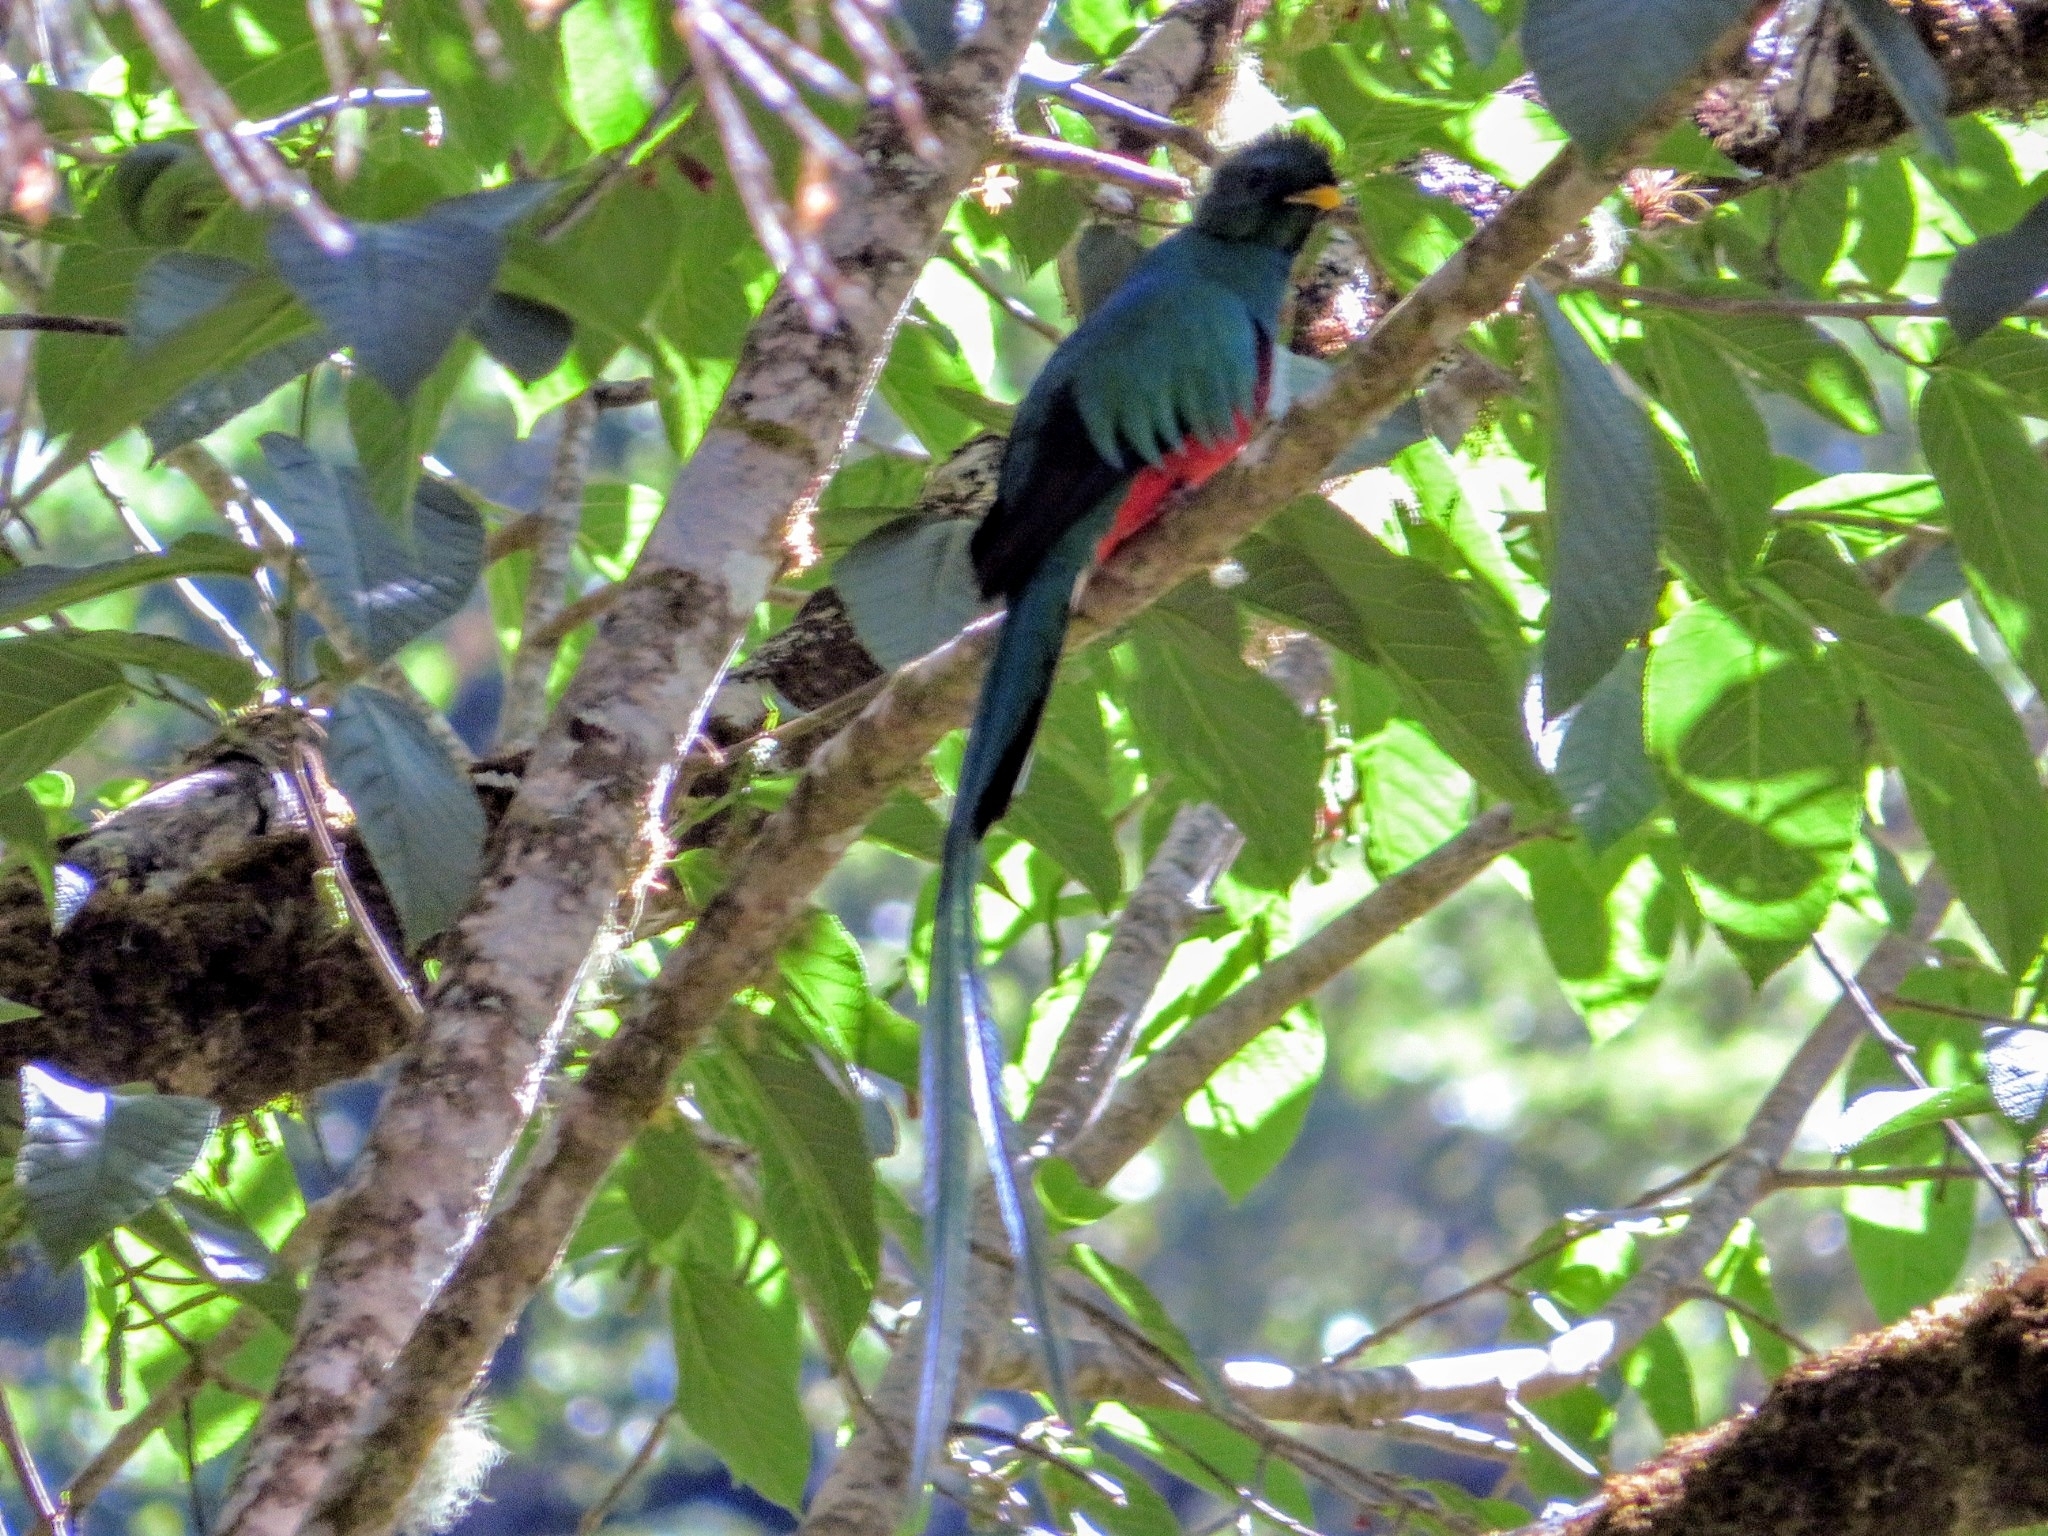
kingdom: Animalia
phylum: Chordata
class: Aves
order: Trogoniformes
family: Trogonidae
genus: Pharomachrus
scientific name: Pharomachrus mocinno
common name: Resplendent quetzal
